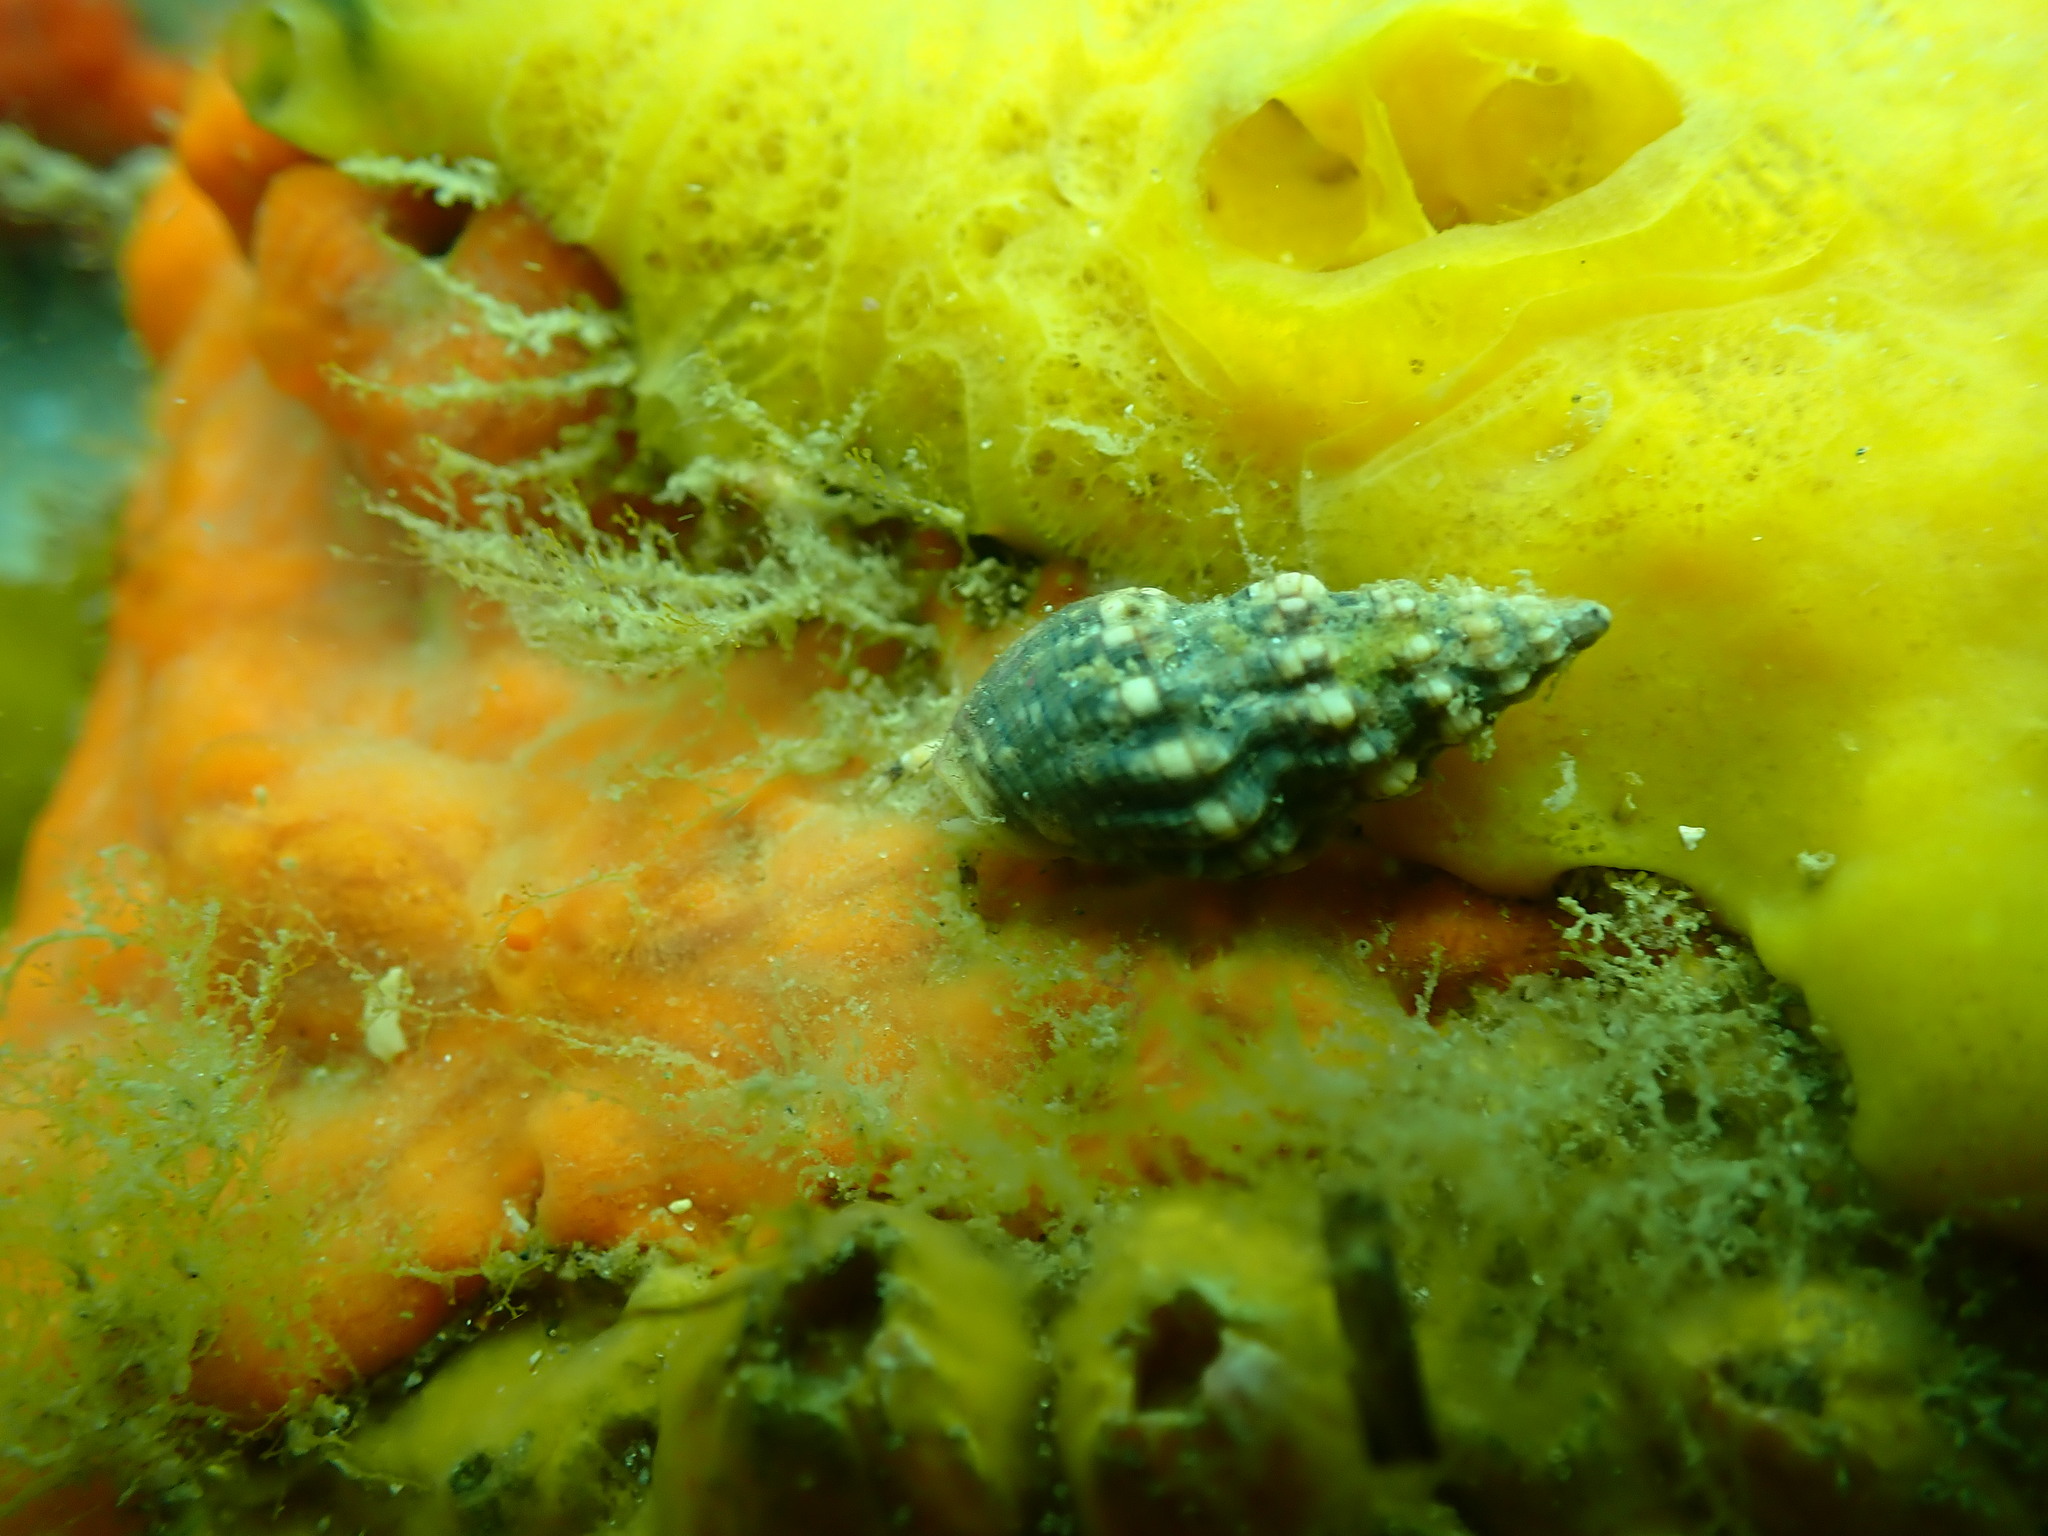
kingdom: Animalia
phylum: Mollusca
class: Gastropoda
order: Neogastropoda
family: Cominellidae
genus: Cominella
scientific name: Cominella quoyana
